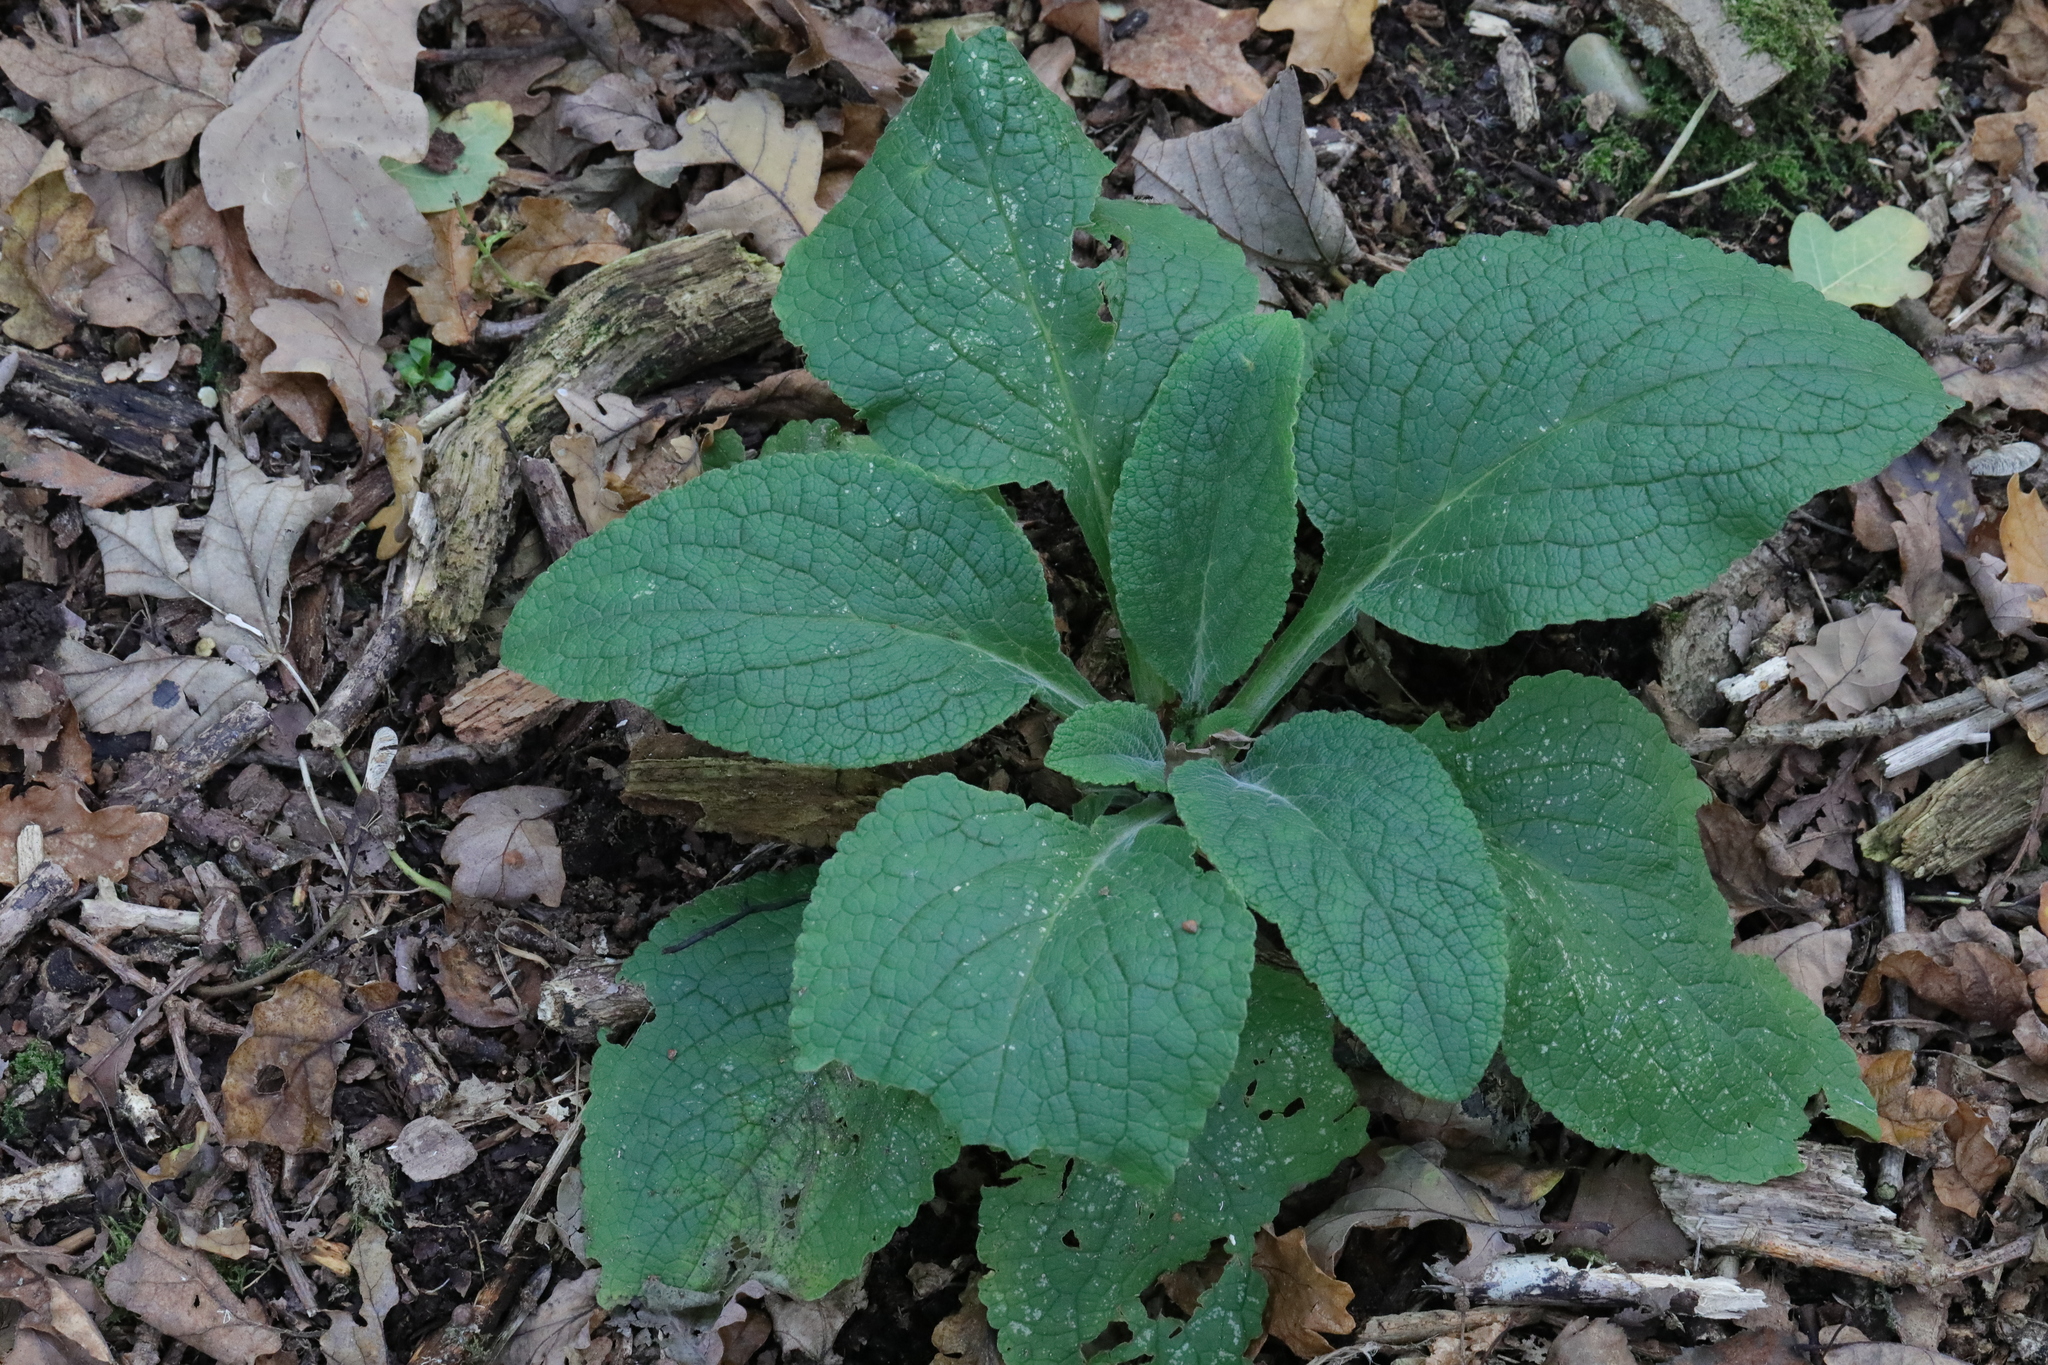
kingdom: Plantae
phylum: Tracheophyta
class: Magnoliopsida
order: Lamiales
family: Plantaginaceae
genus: Digitalis
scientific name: Digitalis purpurea
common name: Foxglove
